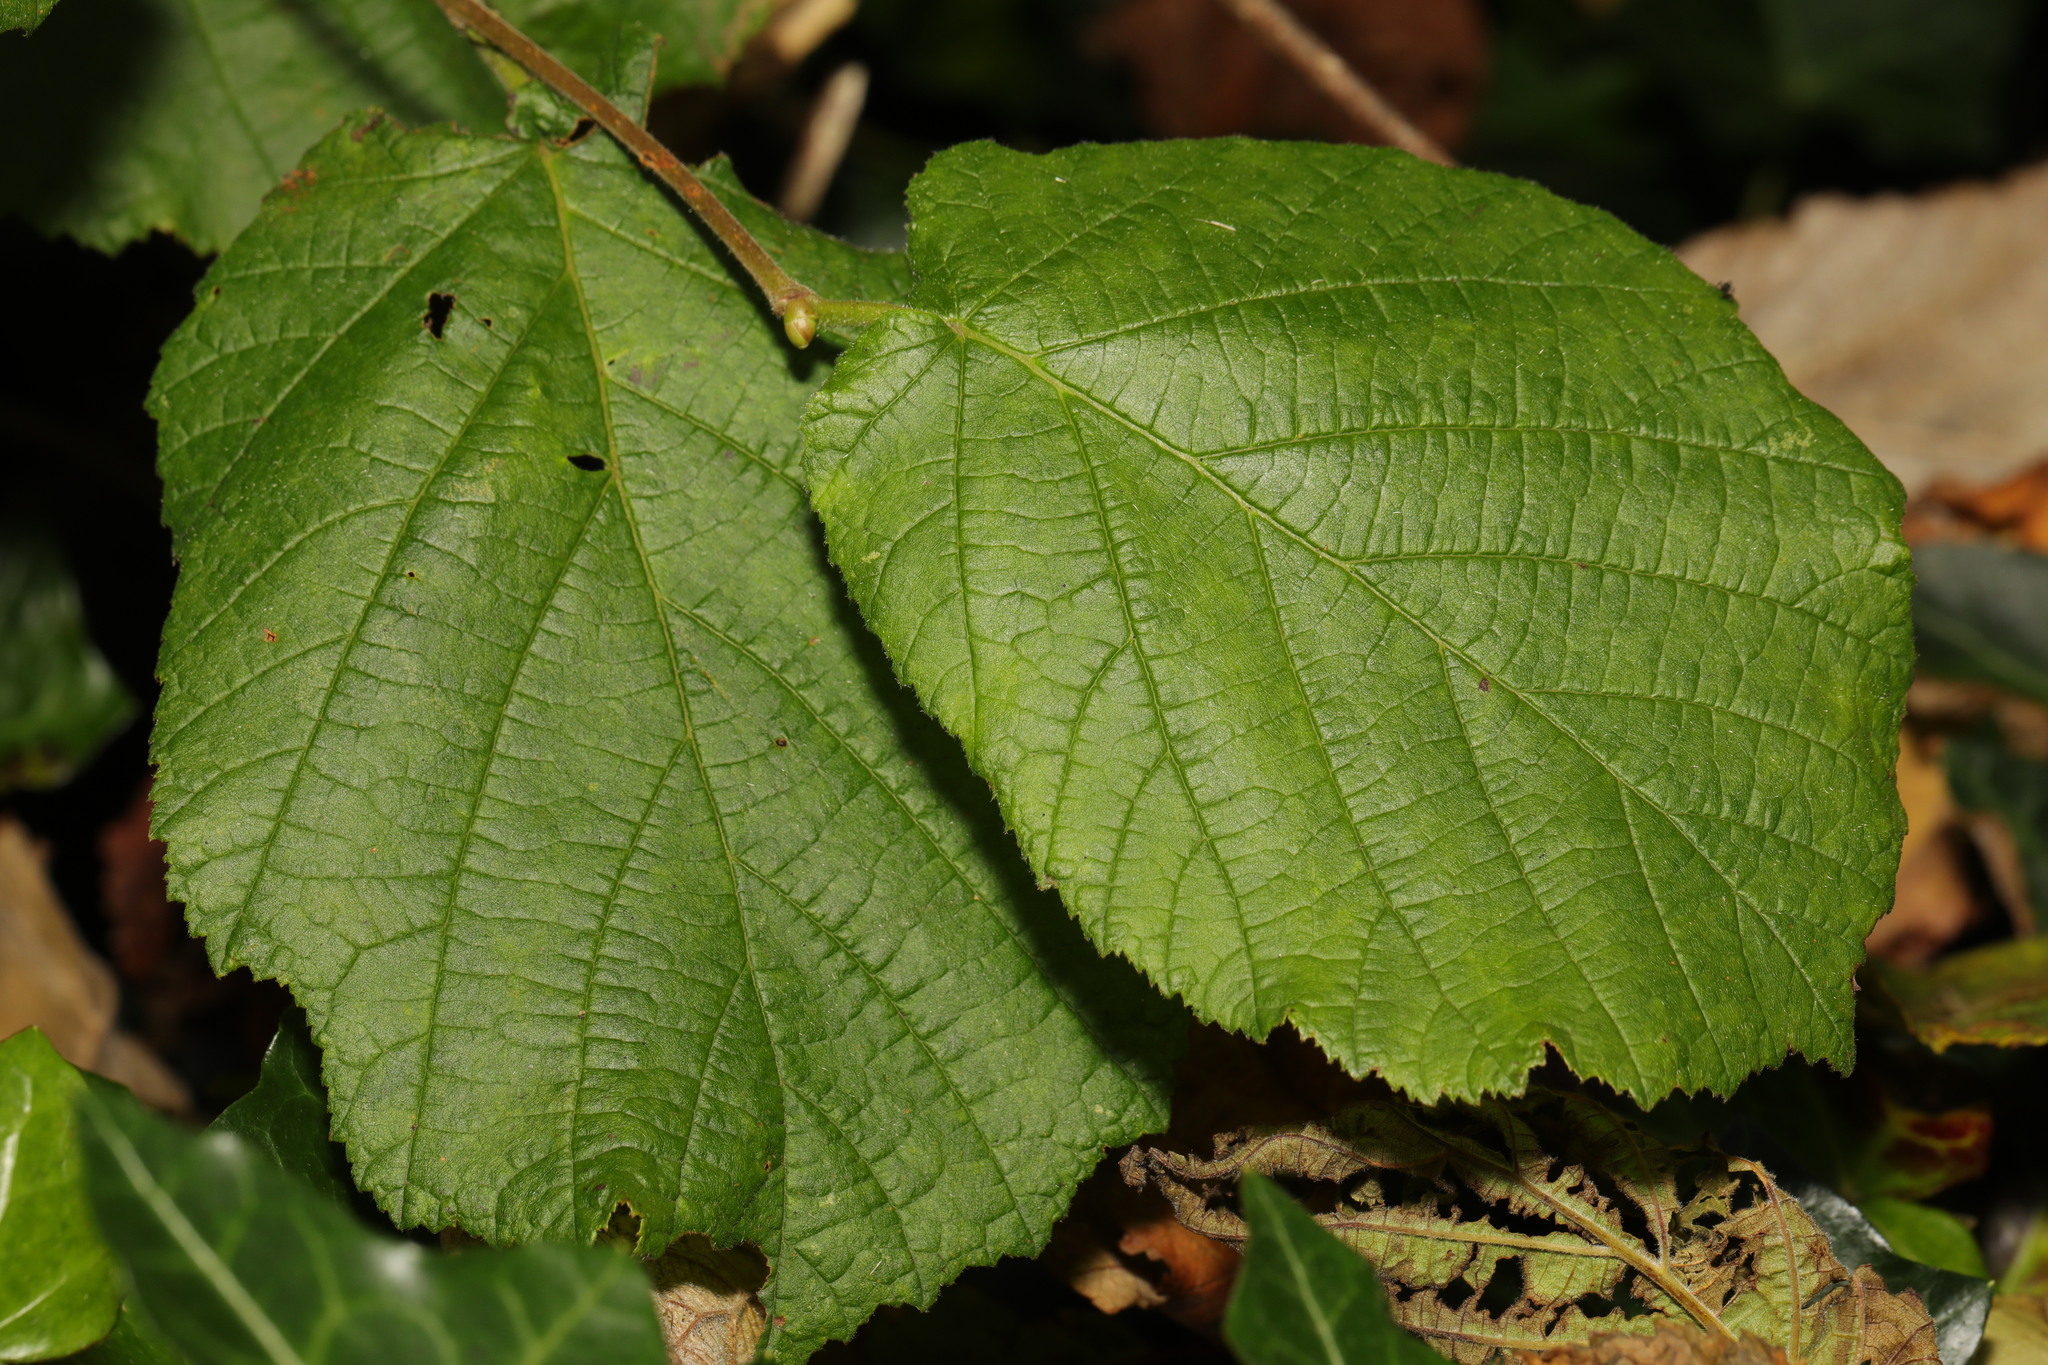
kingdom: Plantae
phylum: Tracheophyta
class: Magnoliopsida
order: Fagales
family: Betulaceae
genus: Corylus
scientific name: Corylus avellana
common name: European hazel
